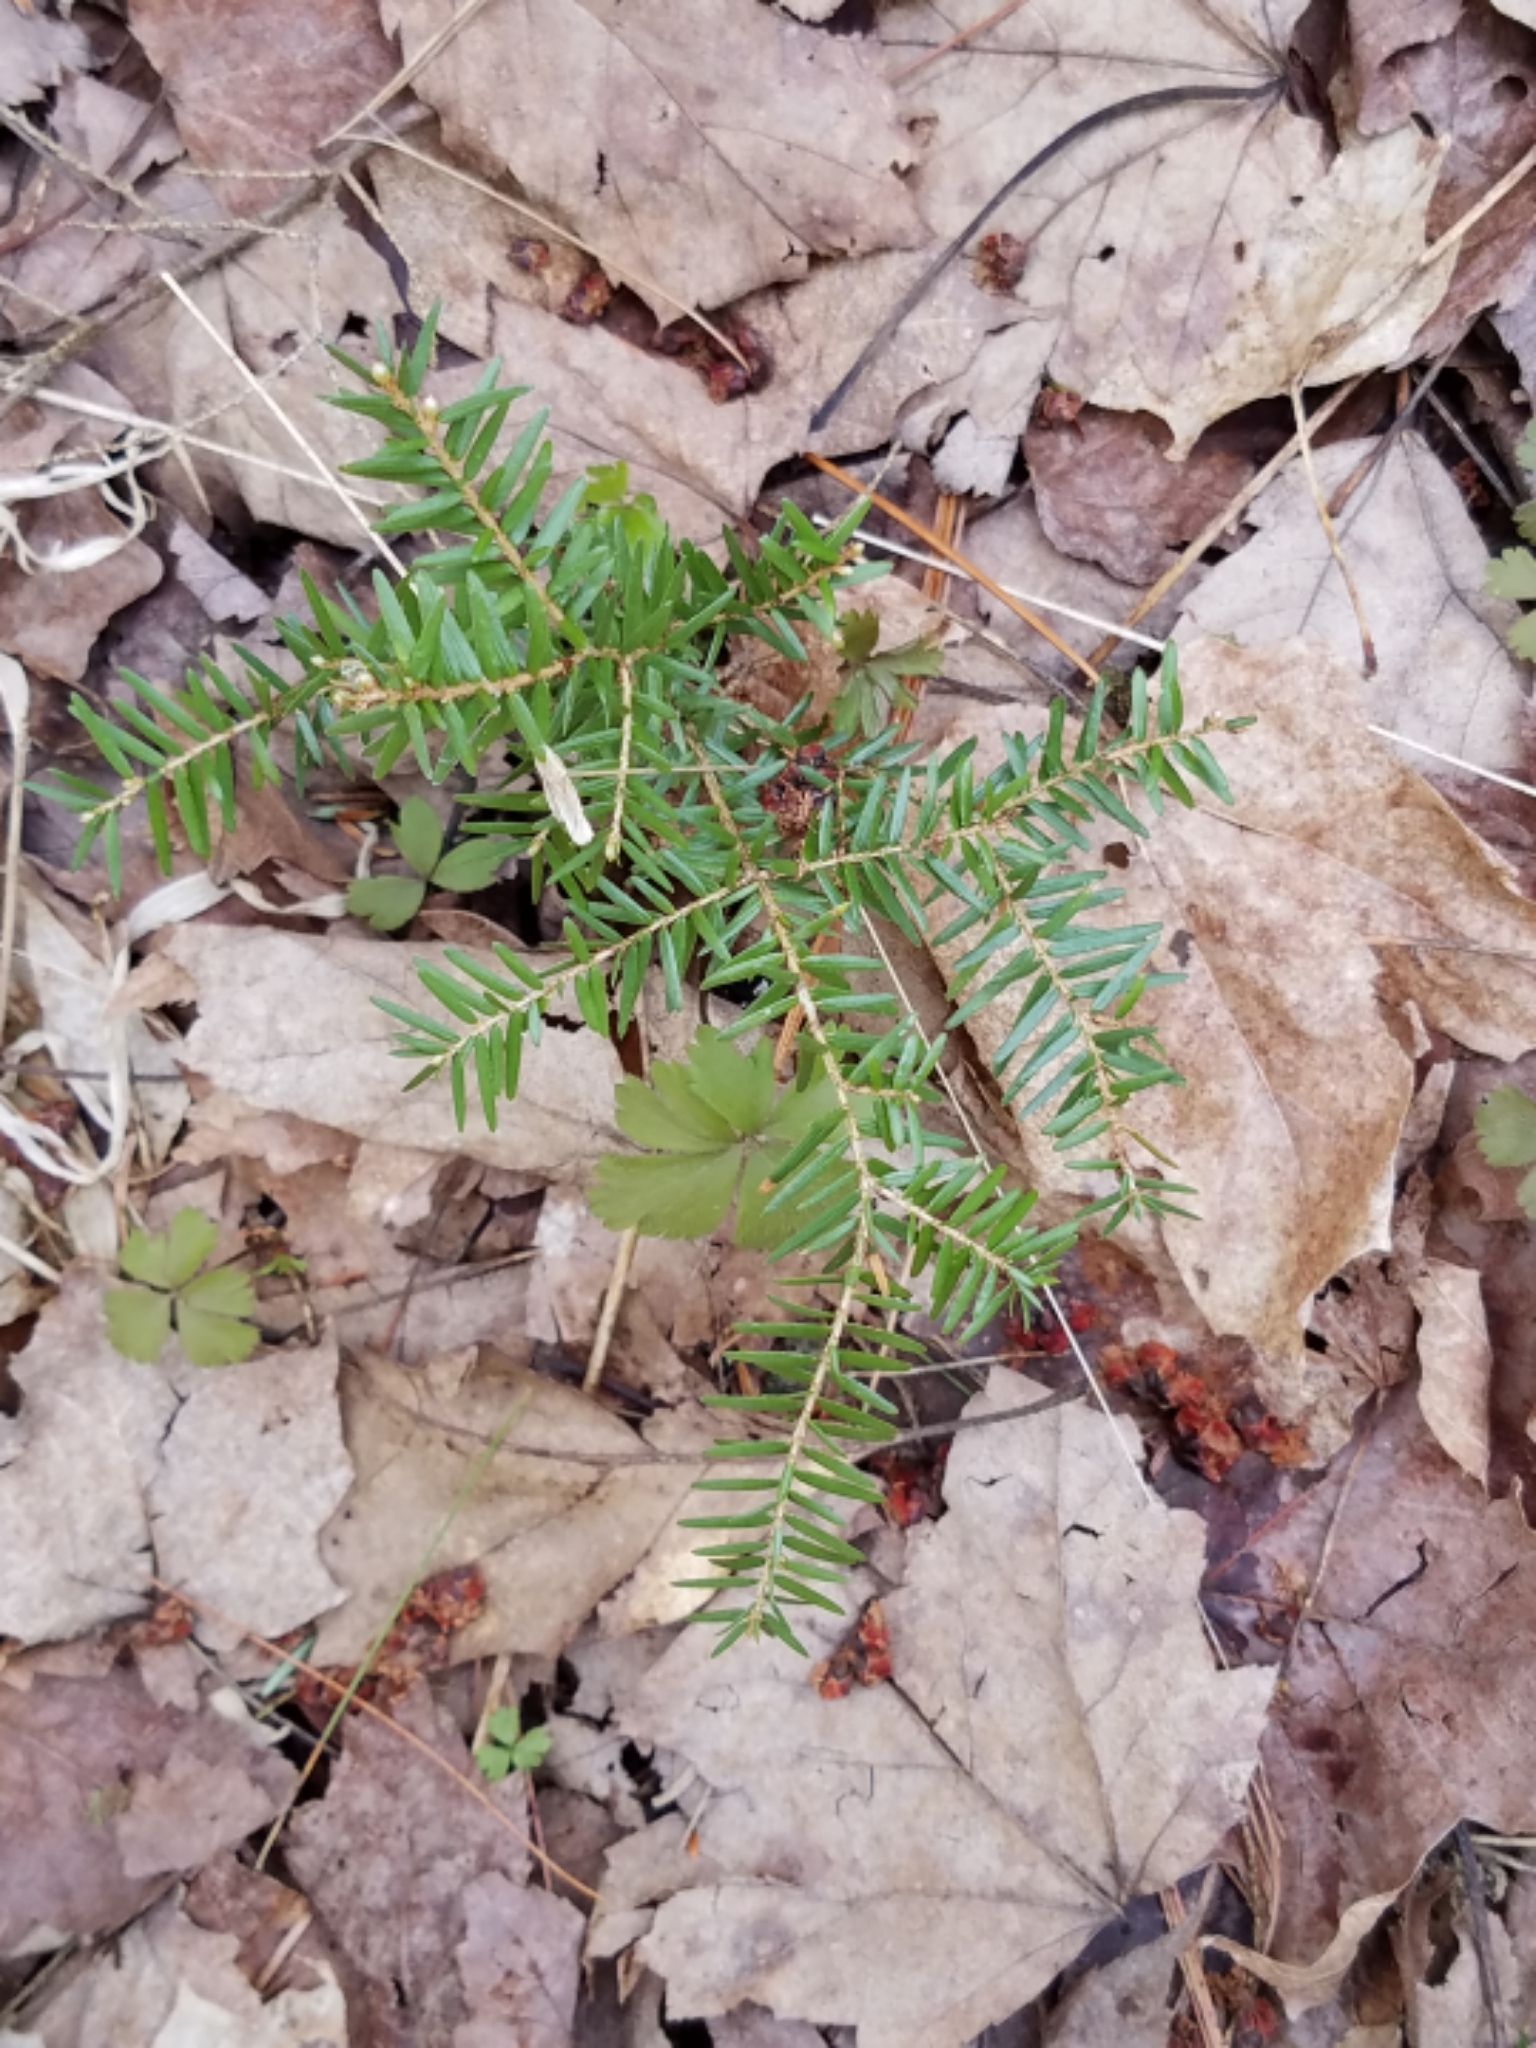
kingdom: Plantae
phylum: Tracheophyta
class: Pinopsida
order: Pinales
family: Pinaceae
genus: Tsuga
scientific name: Tsuga canadensis
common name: Eastern hemlock
